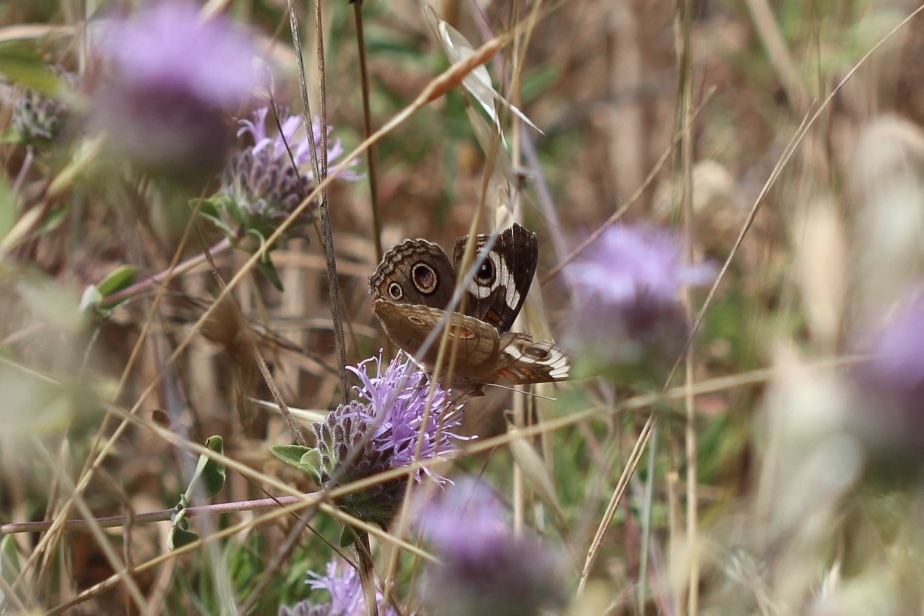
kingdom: Animalia
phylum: Arthropoda
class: Insecta
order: Lepidoptera
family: Nymphalidae
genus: Junonia
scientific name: Junonia grisea
